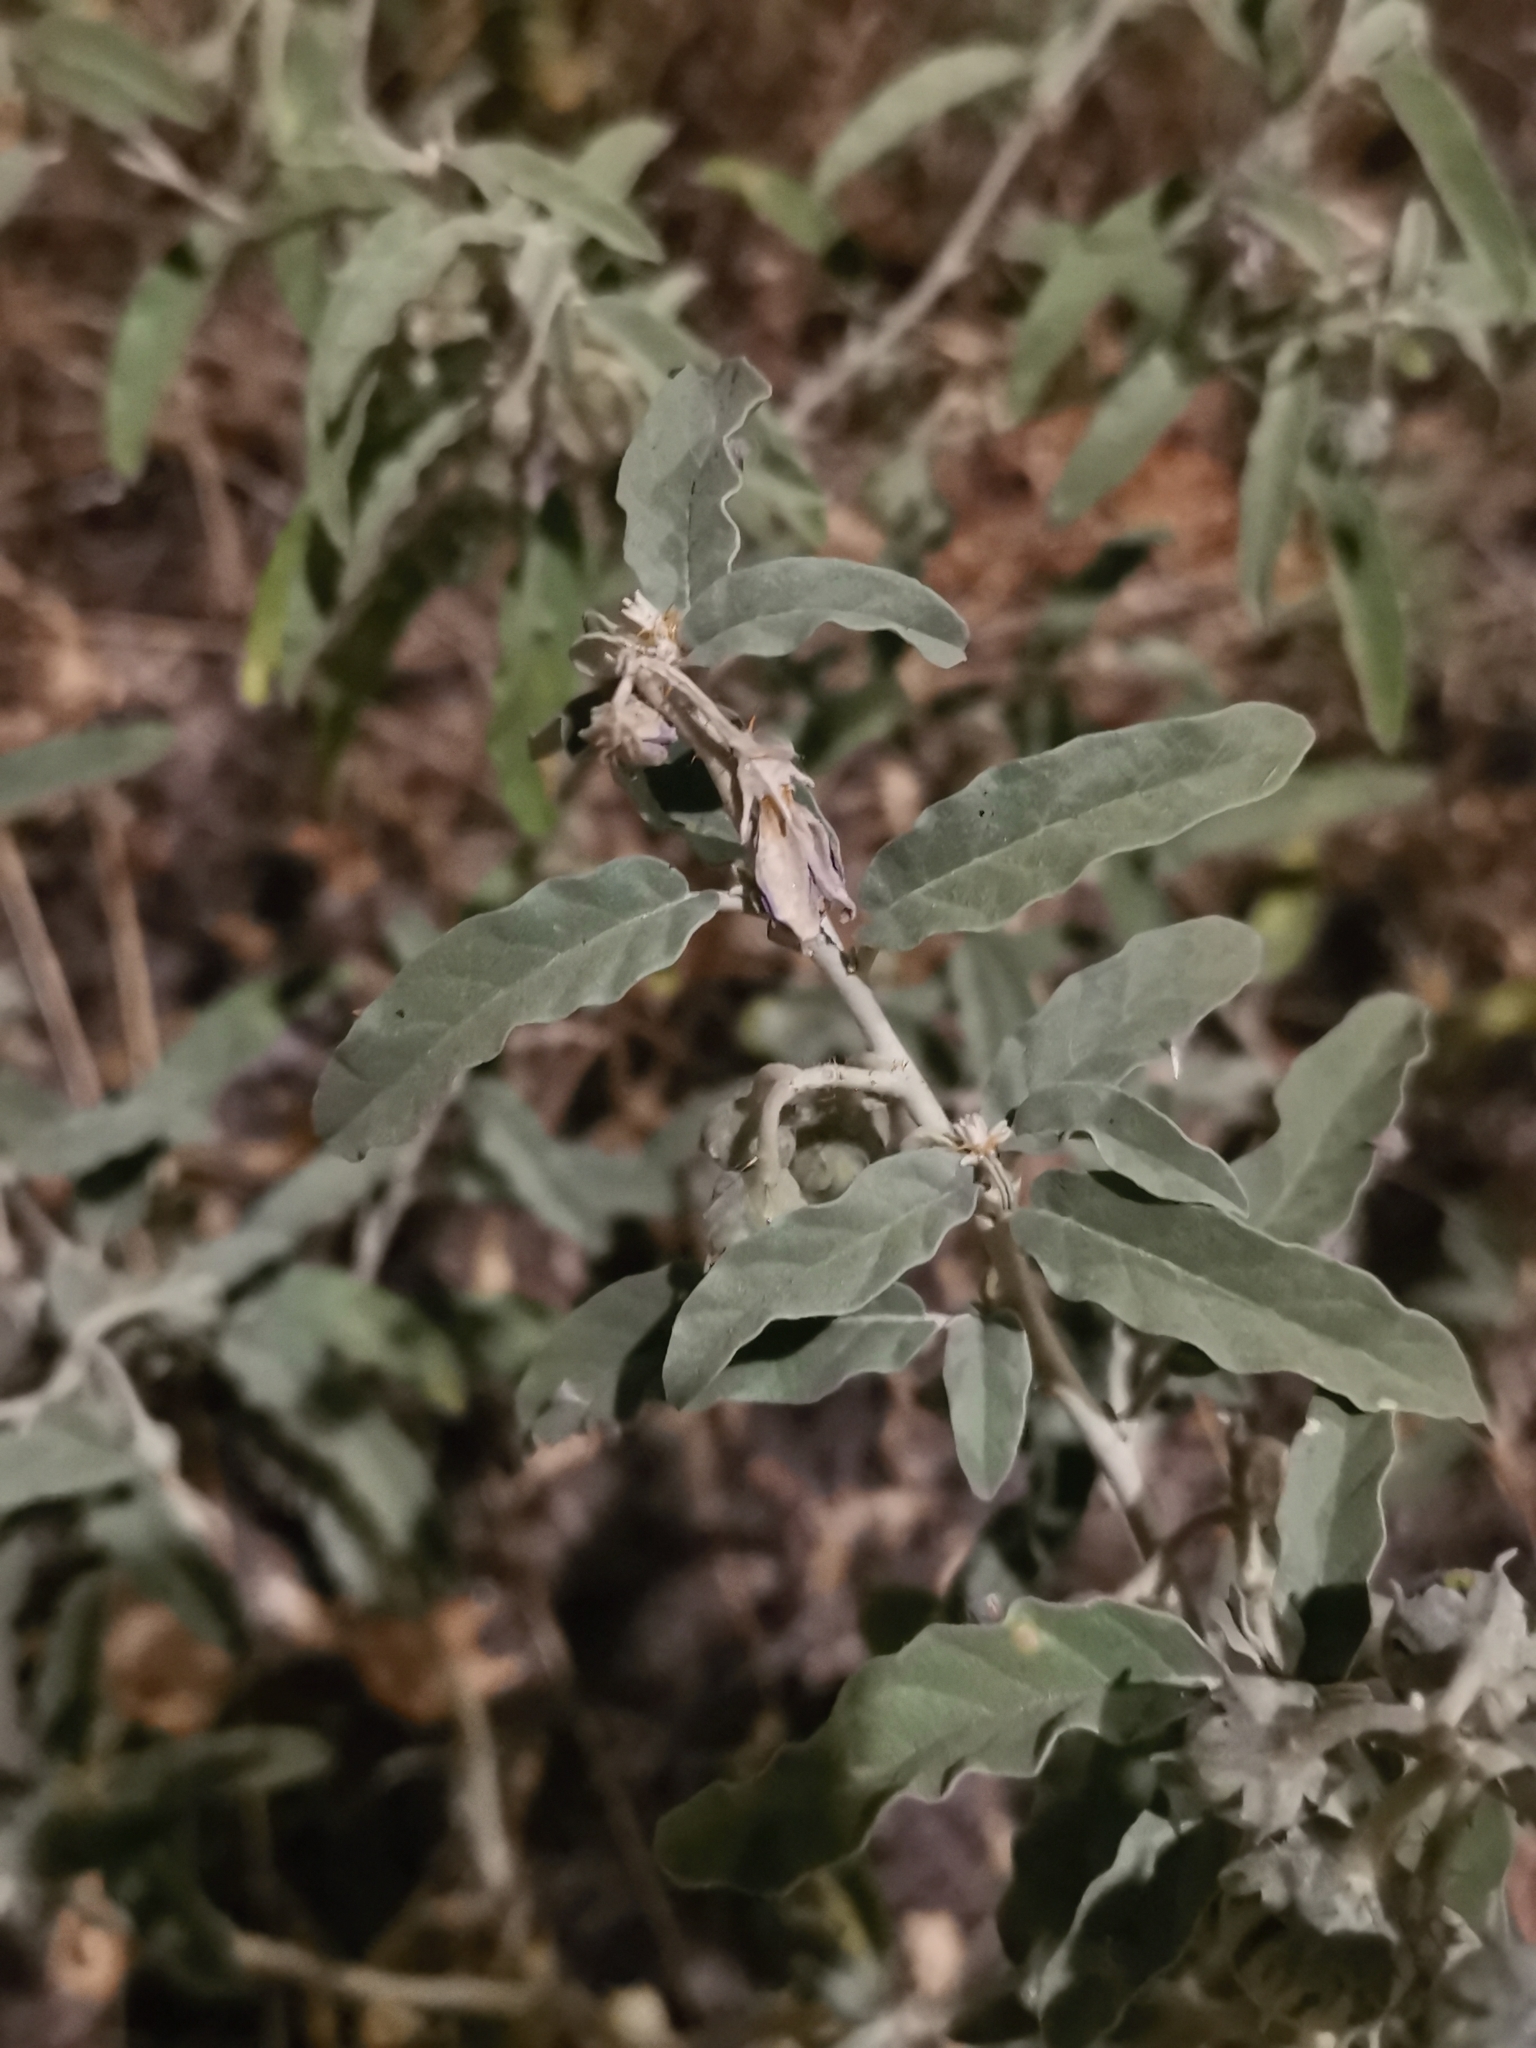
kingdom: Plantae
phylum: Tracheophyta
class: Magnoliopsida
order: Solanales
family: Solanaceae
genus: Solanum
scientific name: Solanum elaeagnifolium
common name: Silverleaf nightshade
